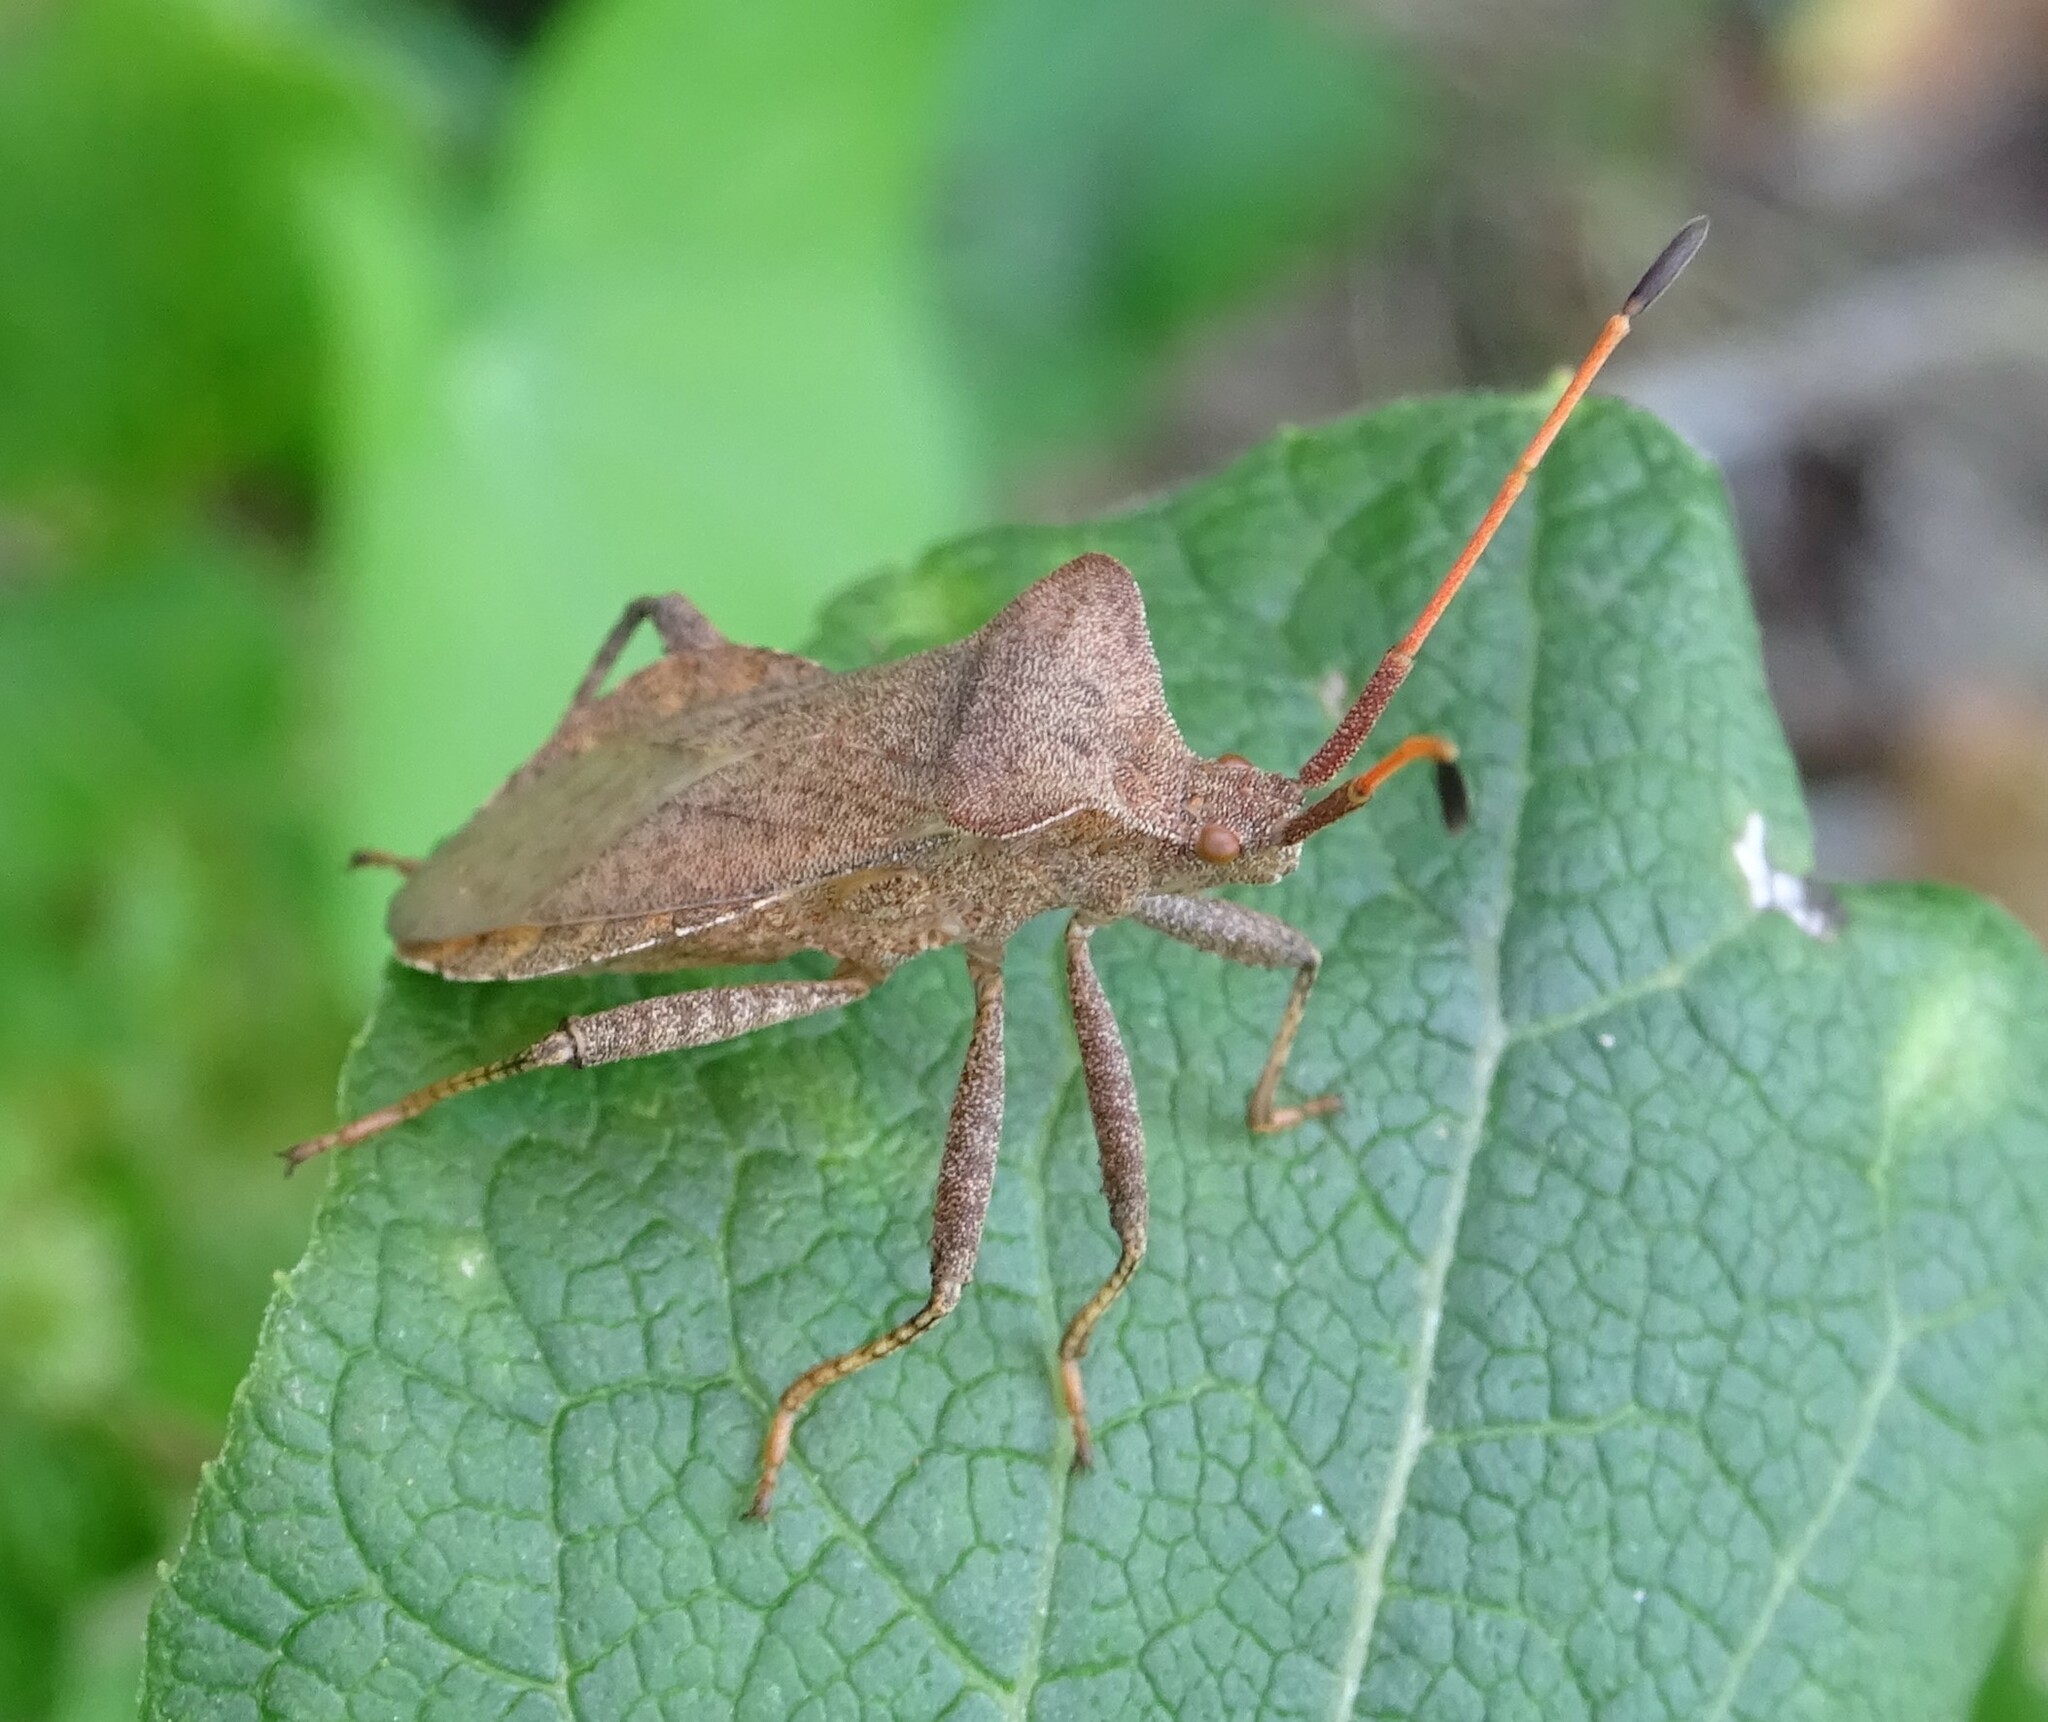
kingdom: Animalia
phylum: Arthropoda
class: Insecta
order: Hemiptera
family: Coreidae
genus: Coreus
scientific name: Coreus marginatus
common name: Dock bug
